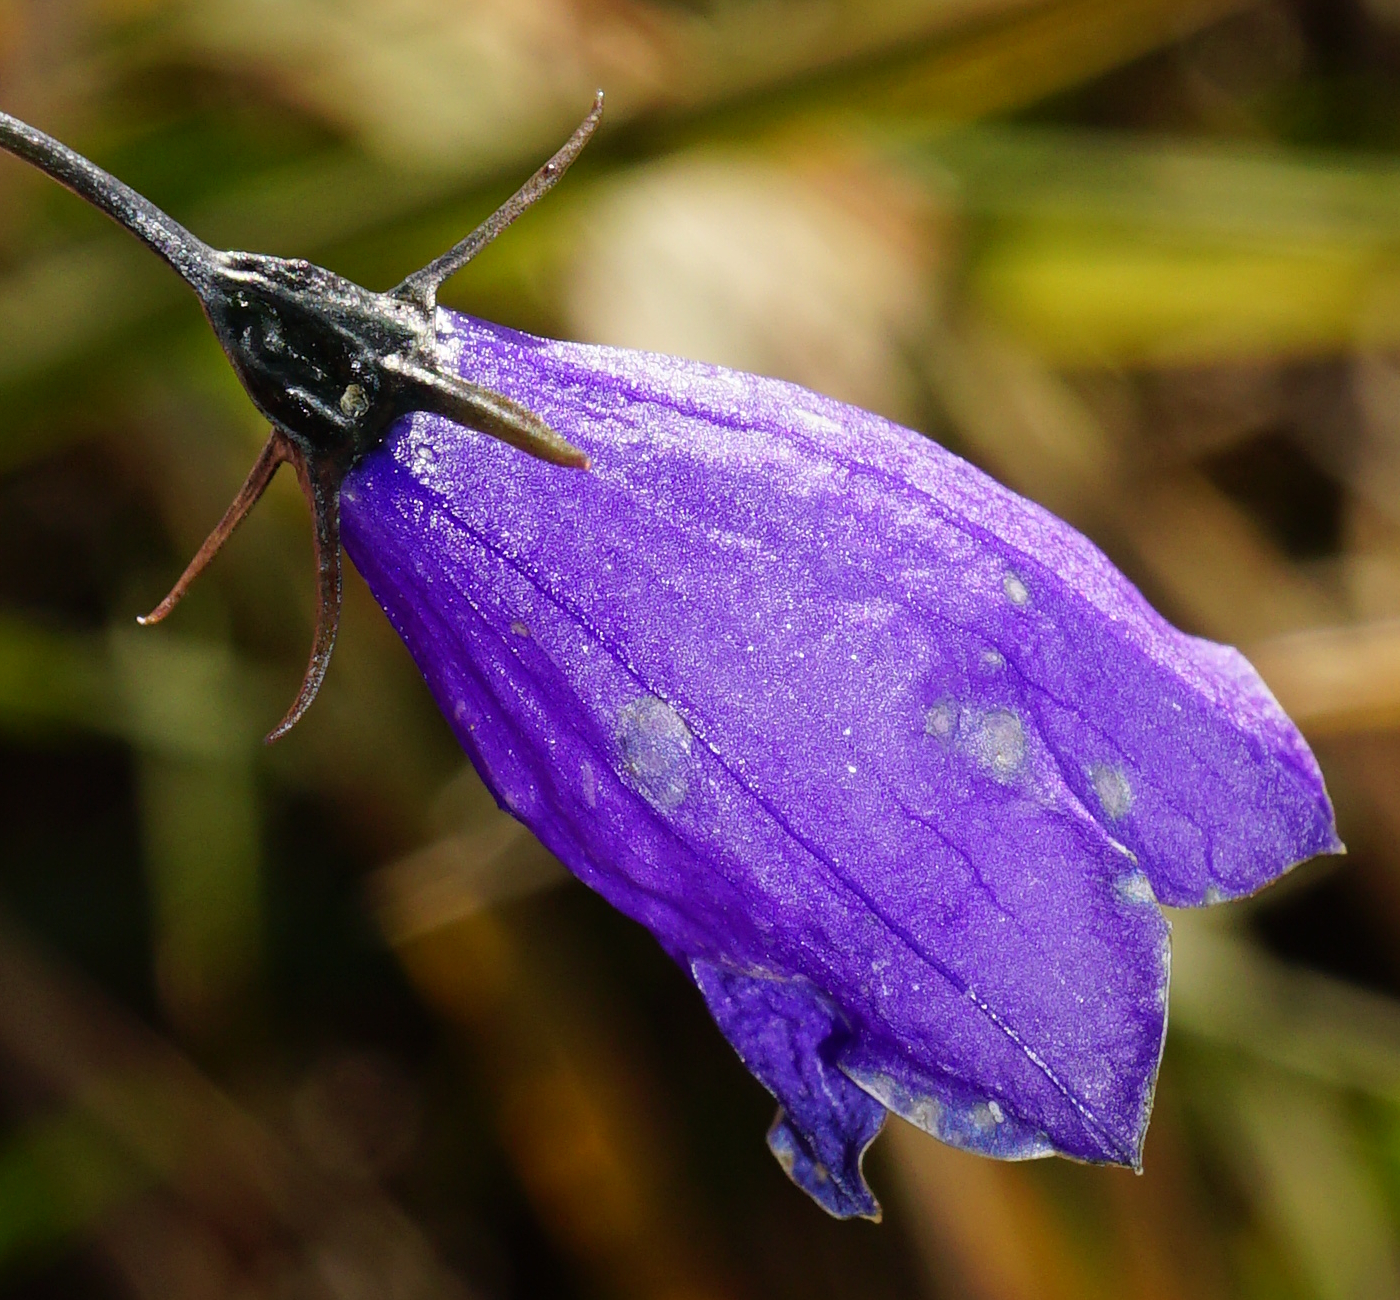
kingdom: Plantae
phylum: Tracheophyta
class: Magnoliopsida
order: Asterales
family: Campanulaceae
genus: Campanula
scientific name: Campanula baumgartenii
